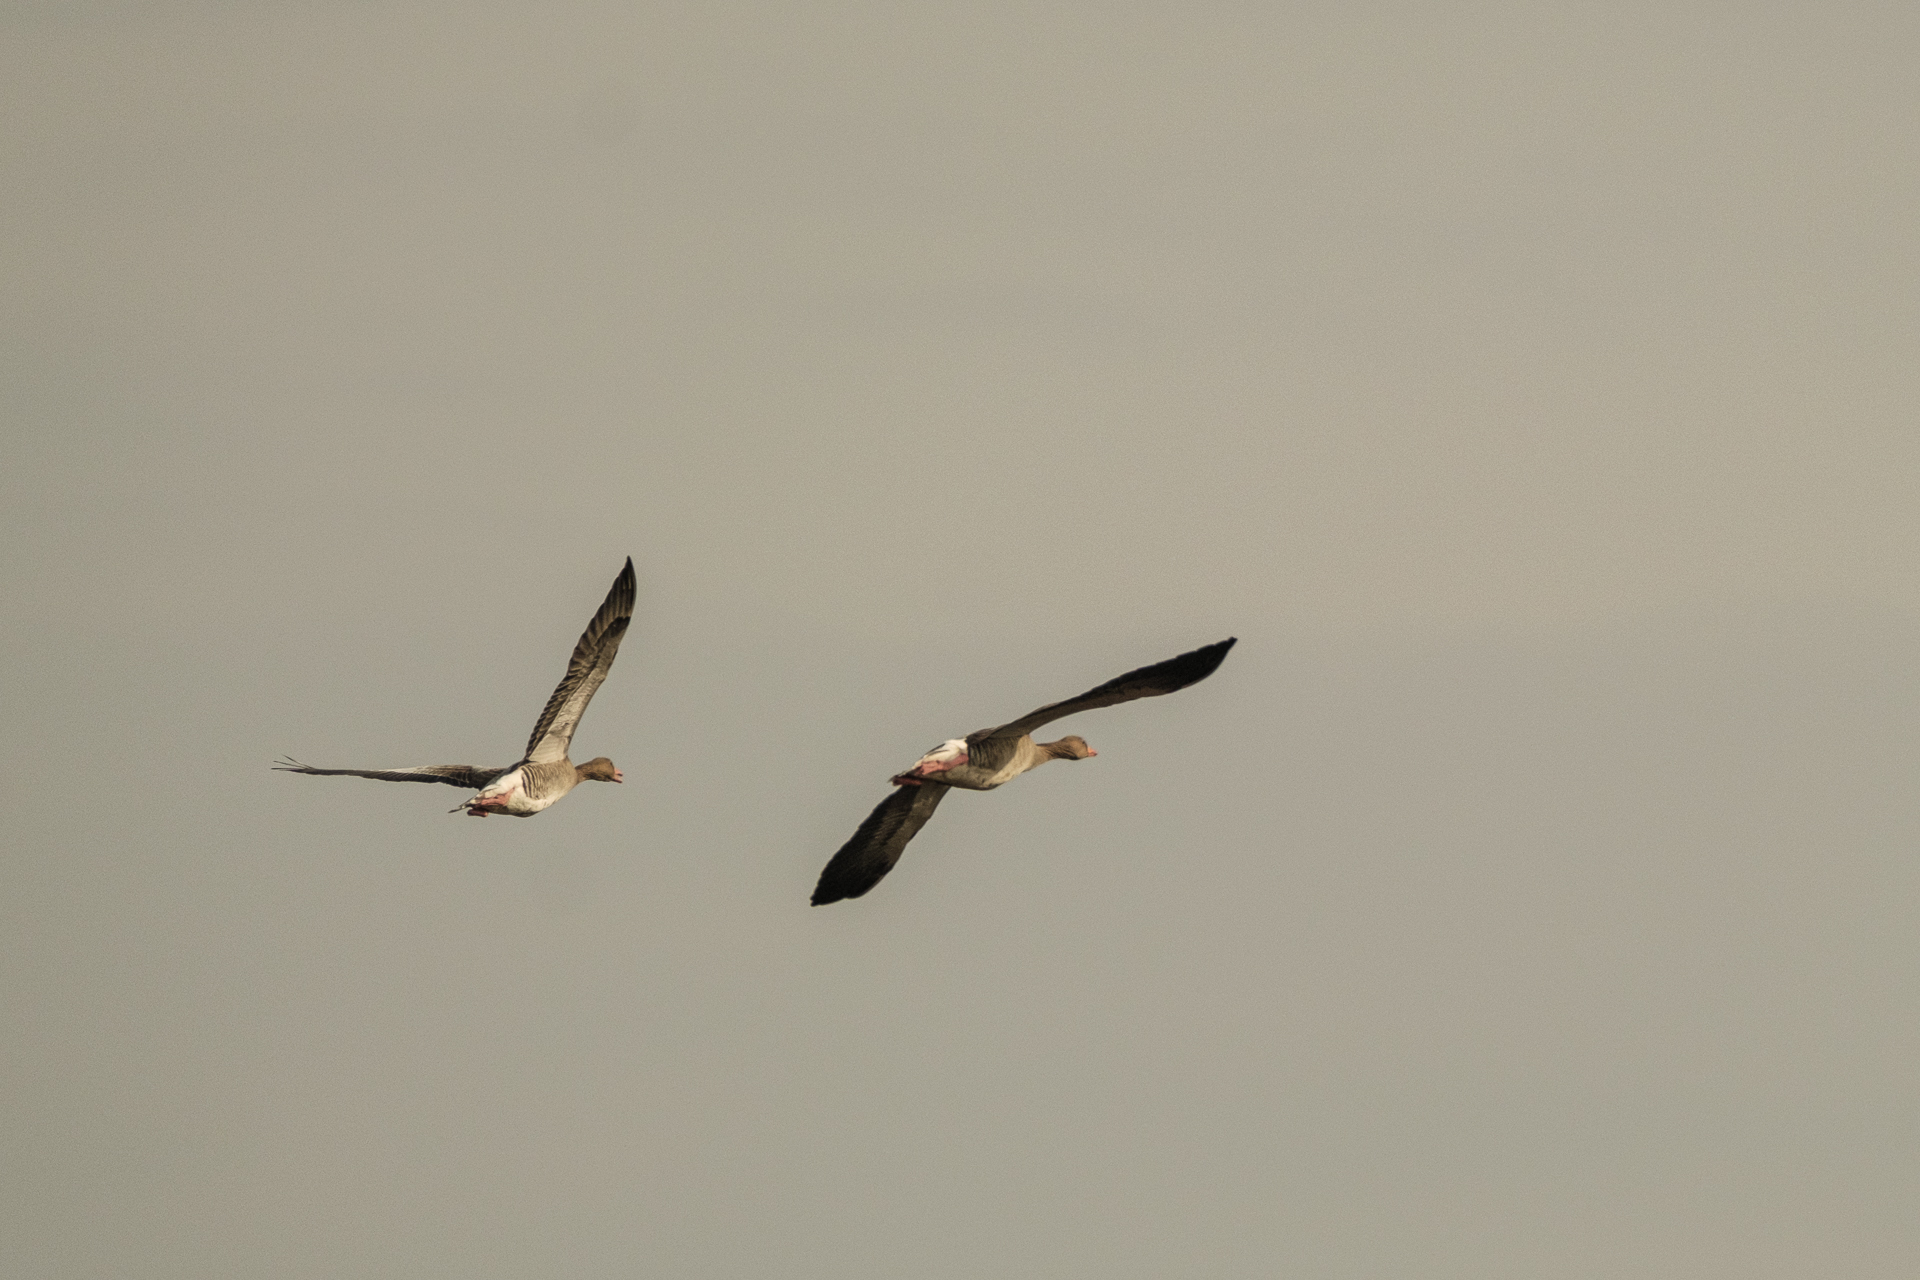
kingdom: Animalia
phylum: Chordata
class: Aves
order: Anseriformes
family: Anatidae
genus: Anser
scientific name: Anser anser
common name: Greylag goose
